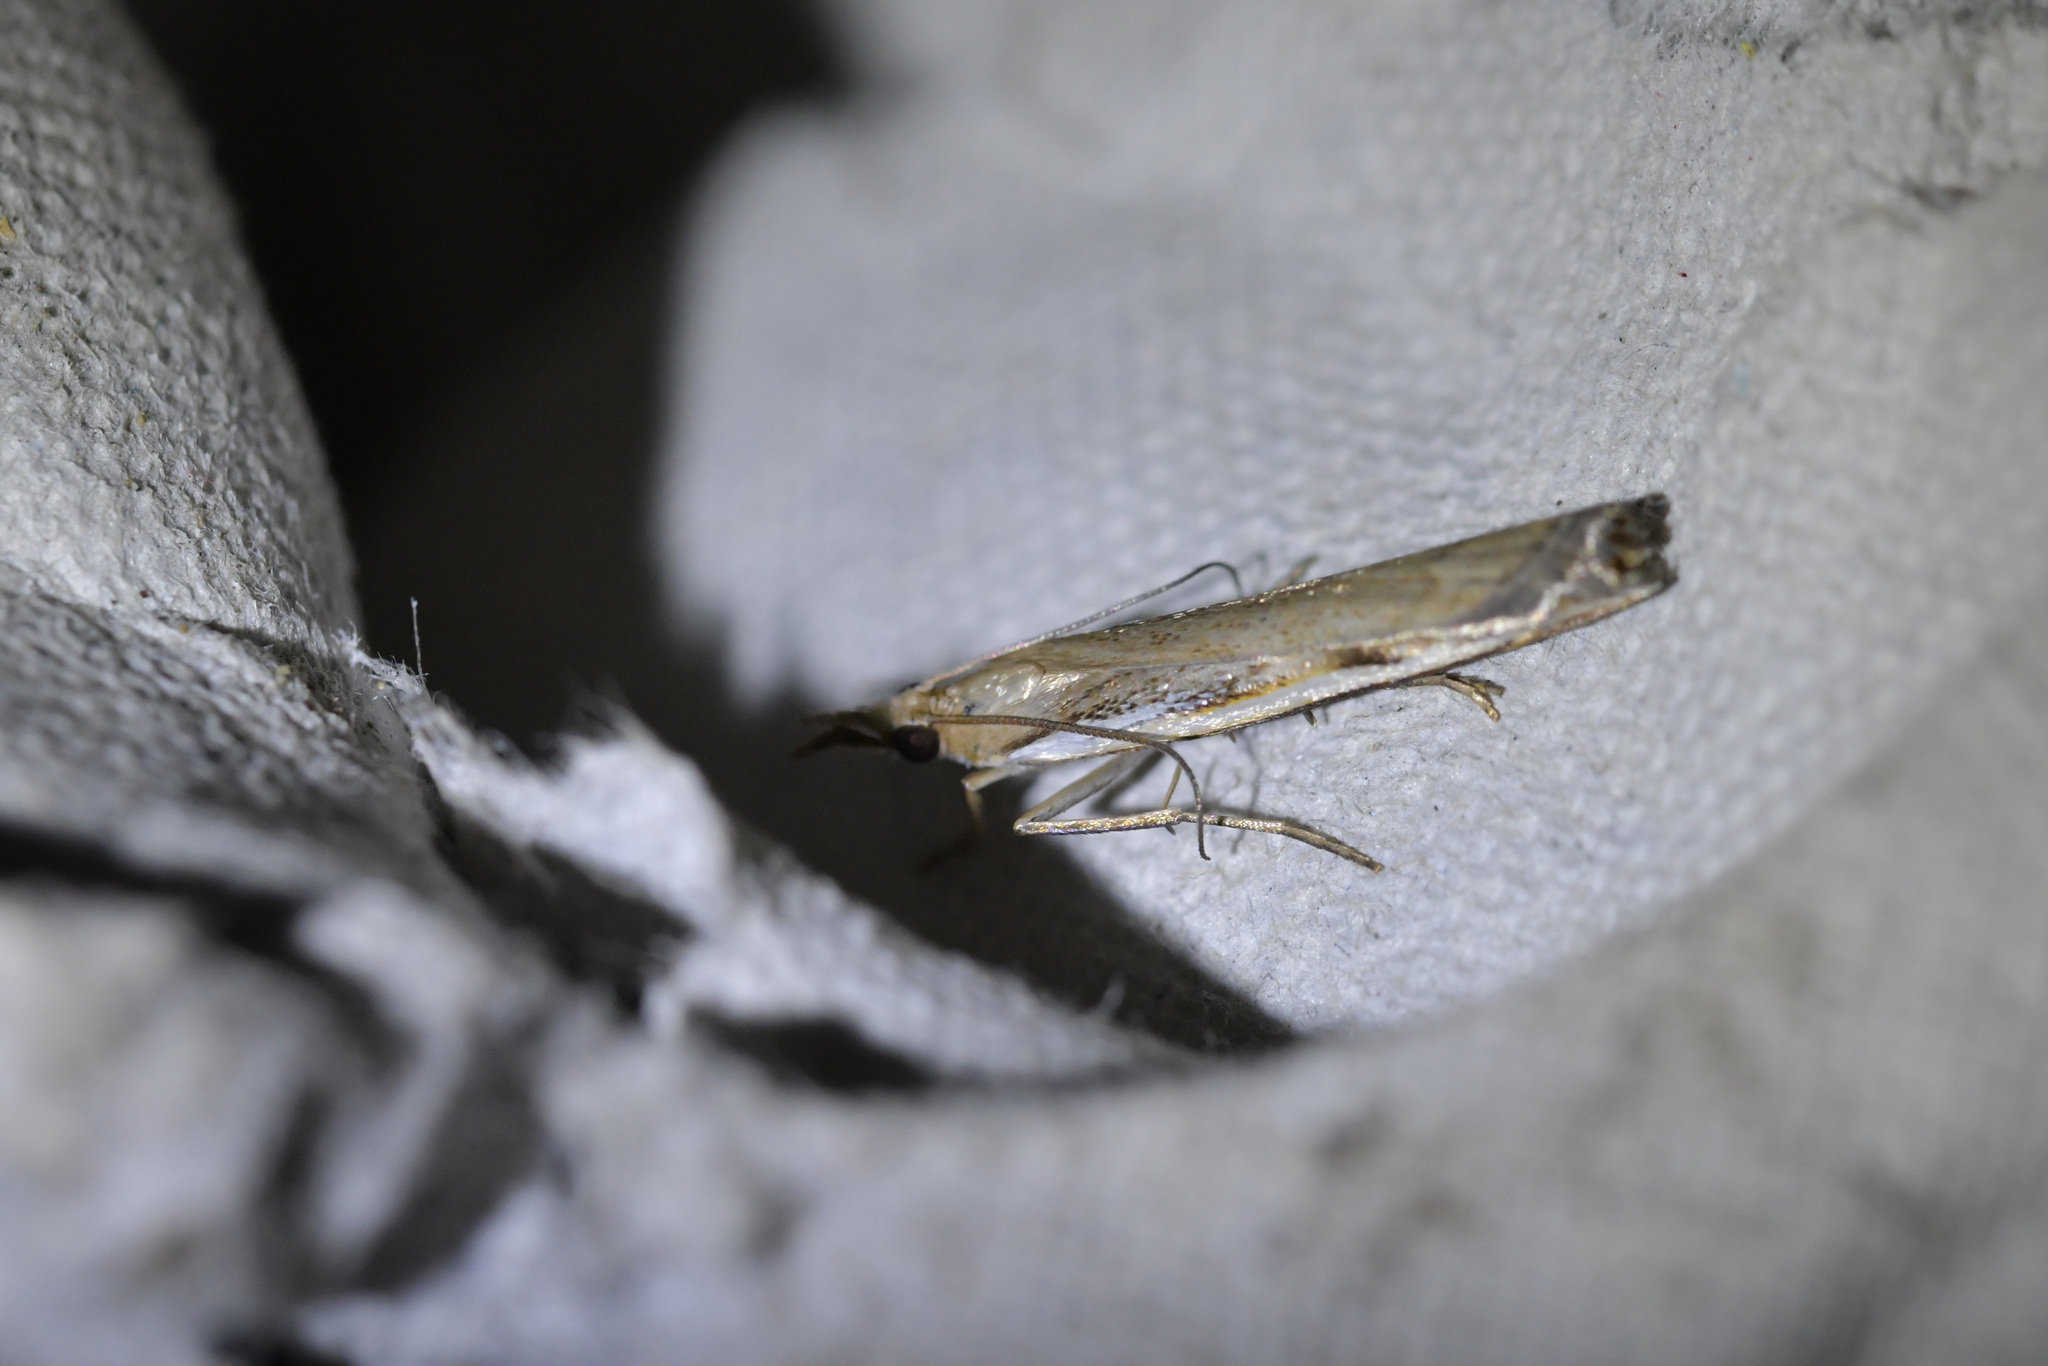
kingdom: Animalia
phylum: Arthropoda
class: Insecta
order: Lepidoptera
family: Crambidae
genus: Orocrambus
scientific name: Orocrambus flexuosellus
